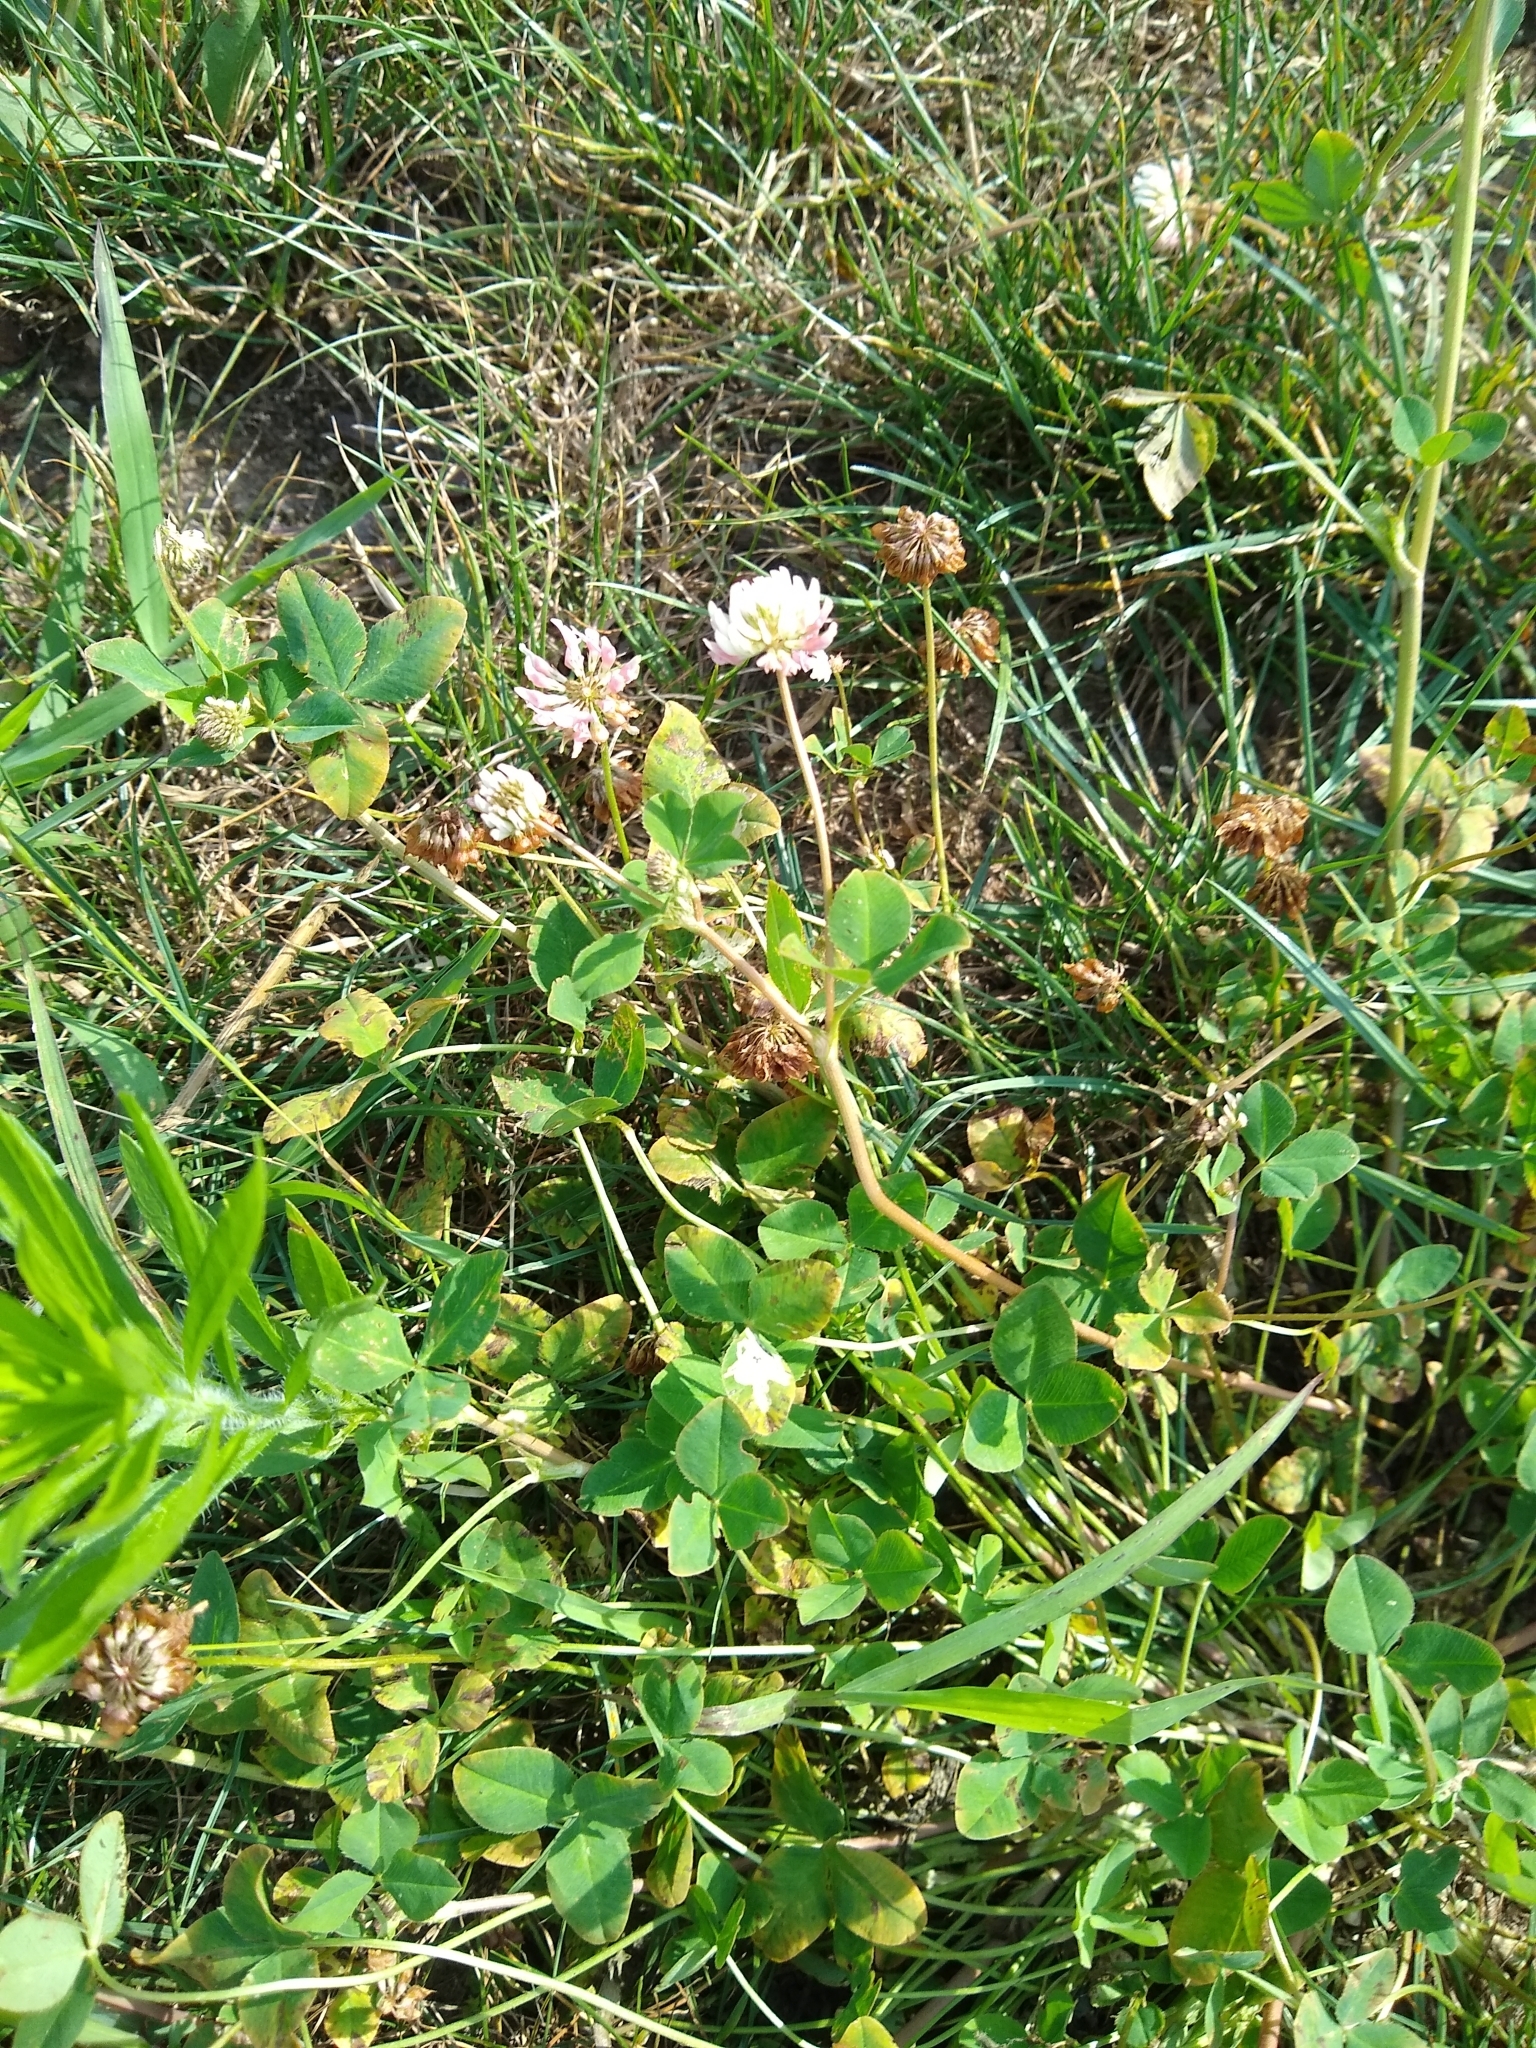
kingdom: Plantae
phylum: Tracheophyta
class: Magnoliopsida
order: Fabales
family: Fabaceae
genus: Trifolium
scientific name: Trifolium hybridum
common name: Alsike clover
